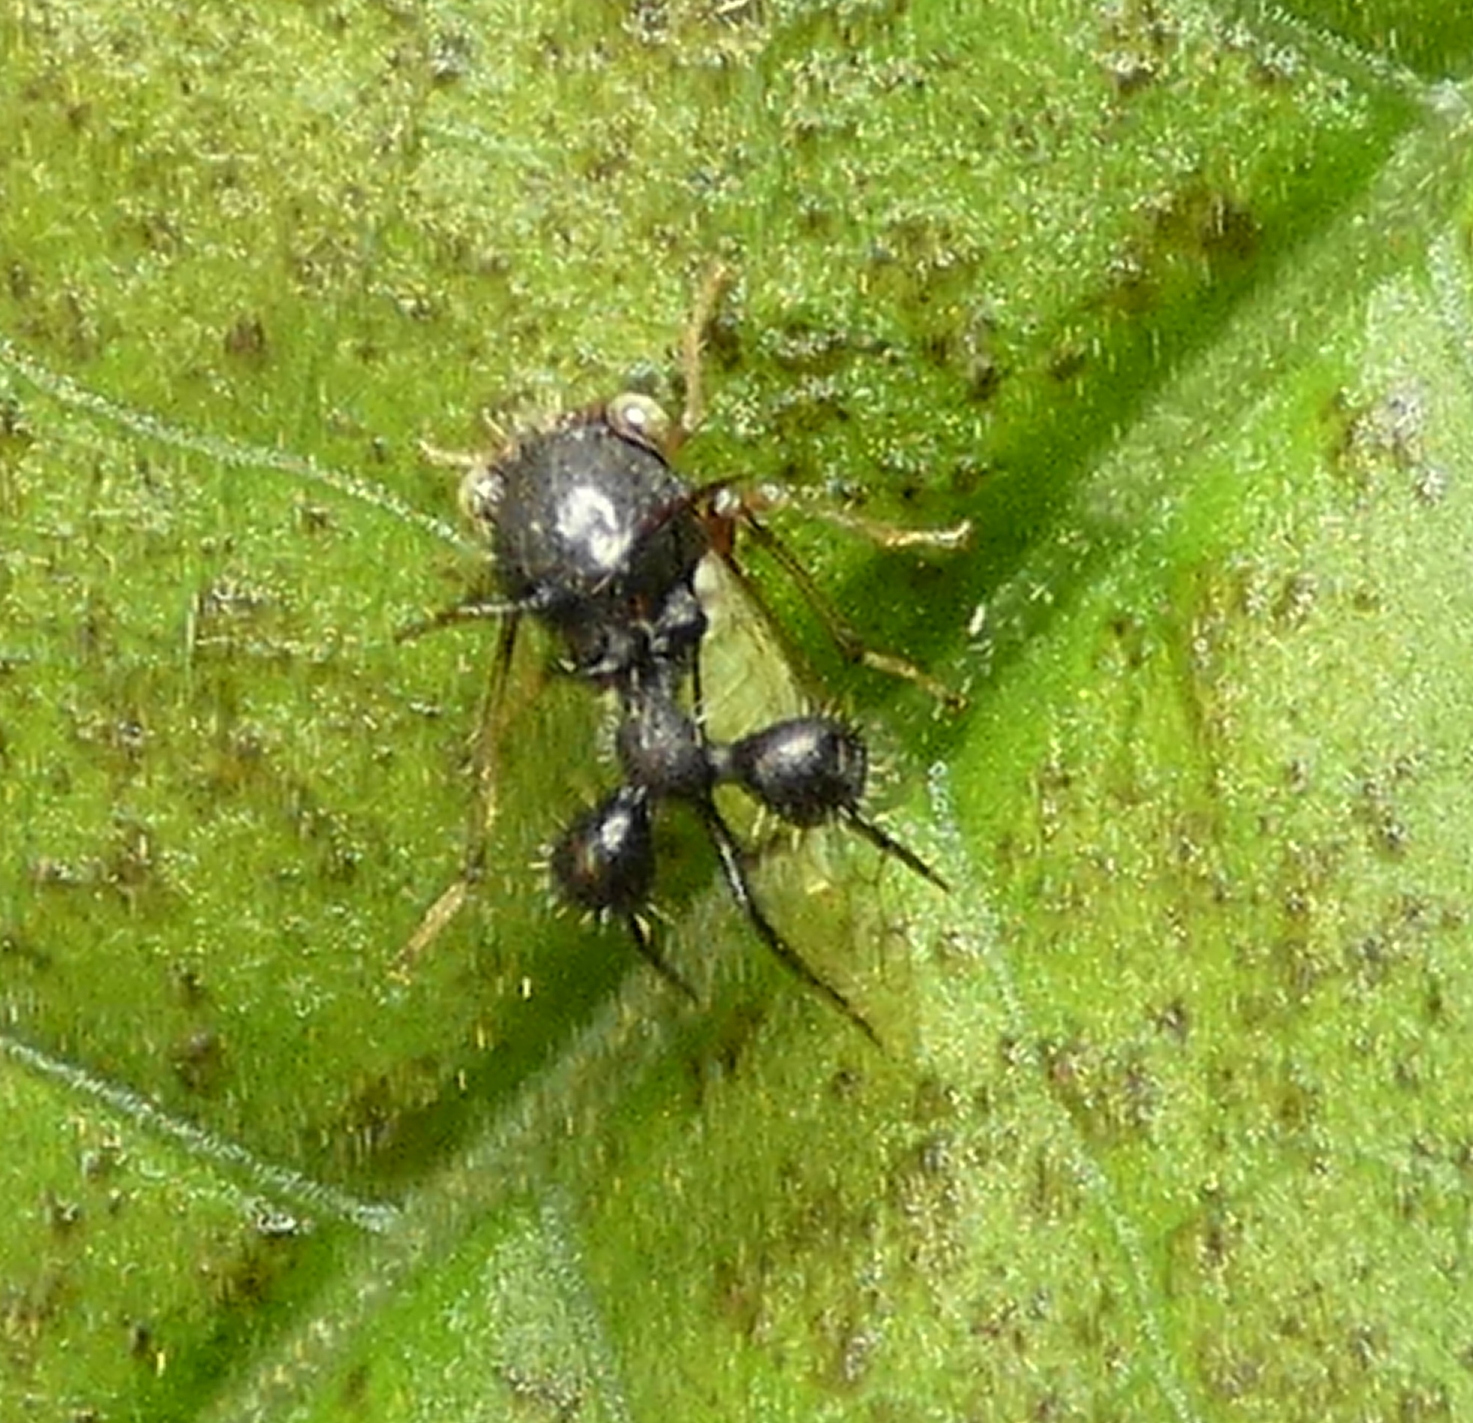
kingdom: Animalia
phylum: Arthropoda
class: Insecta
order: Hemiptera
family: Membracidae
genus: Cyphonia
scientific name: Cyphonia clavata
